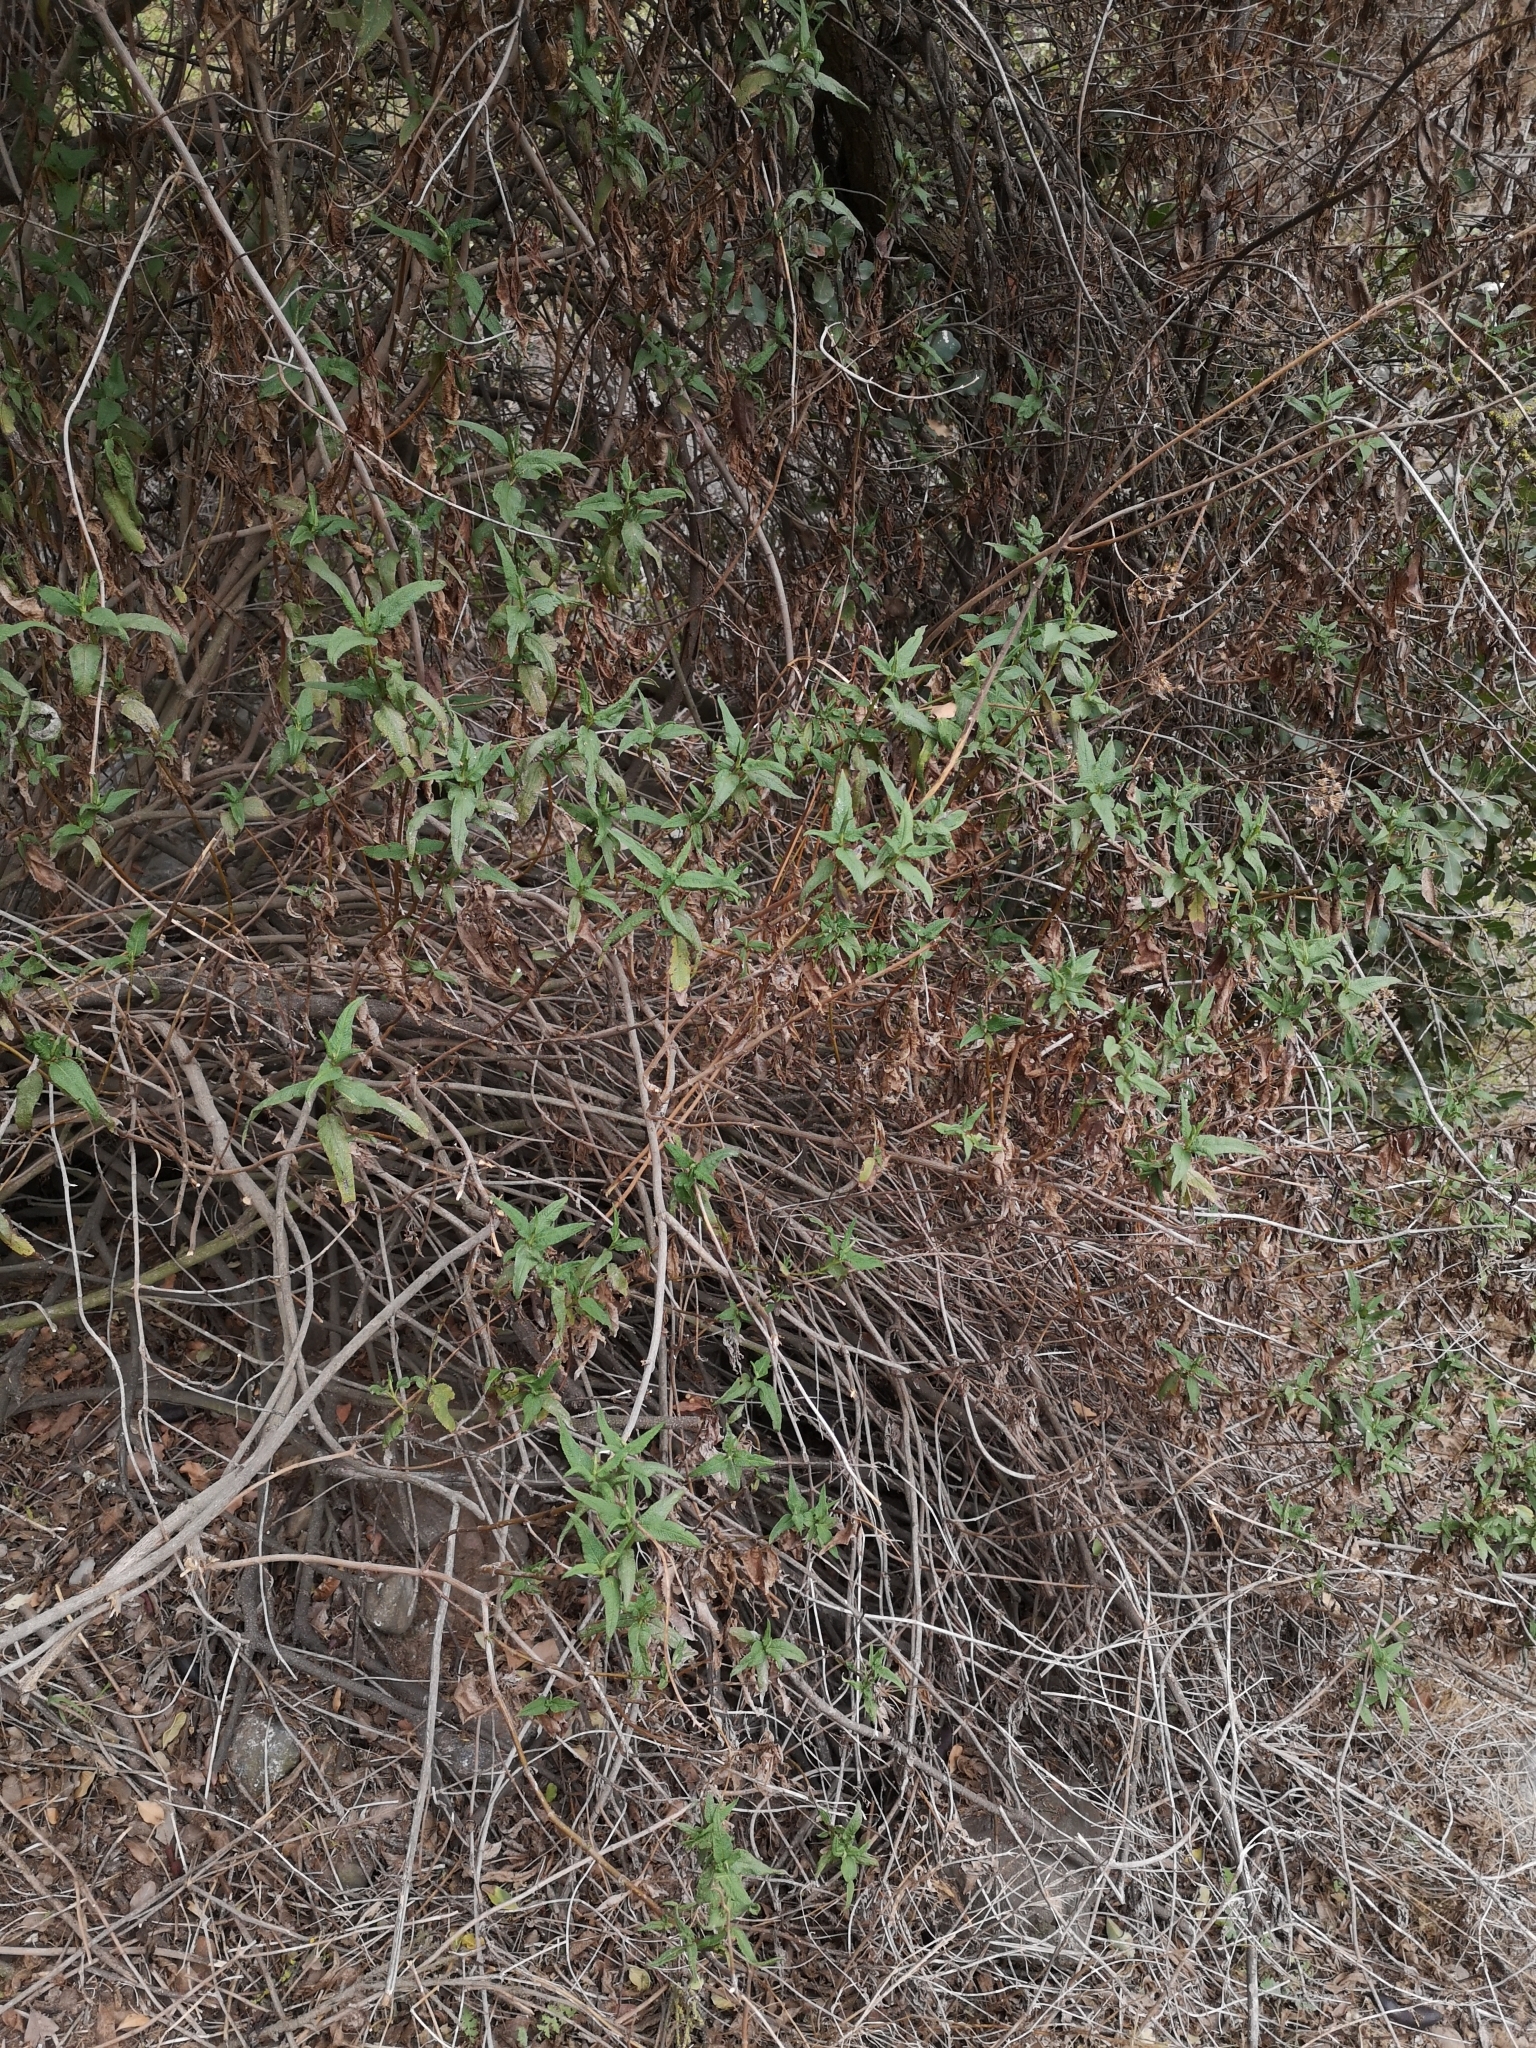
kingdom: Plantae
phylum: Tracheophyta
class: Magnoliopsida
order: Asterales
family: Asteraceae
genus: Aristeguietia
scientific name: Aristeguietia salvia
